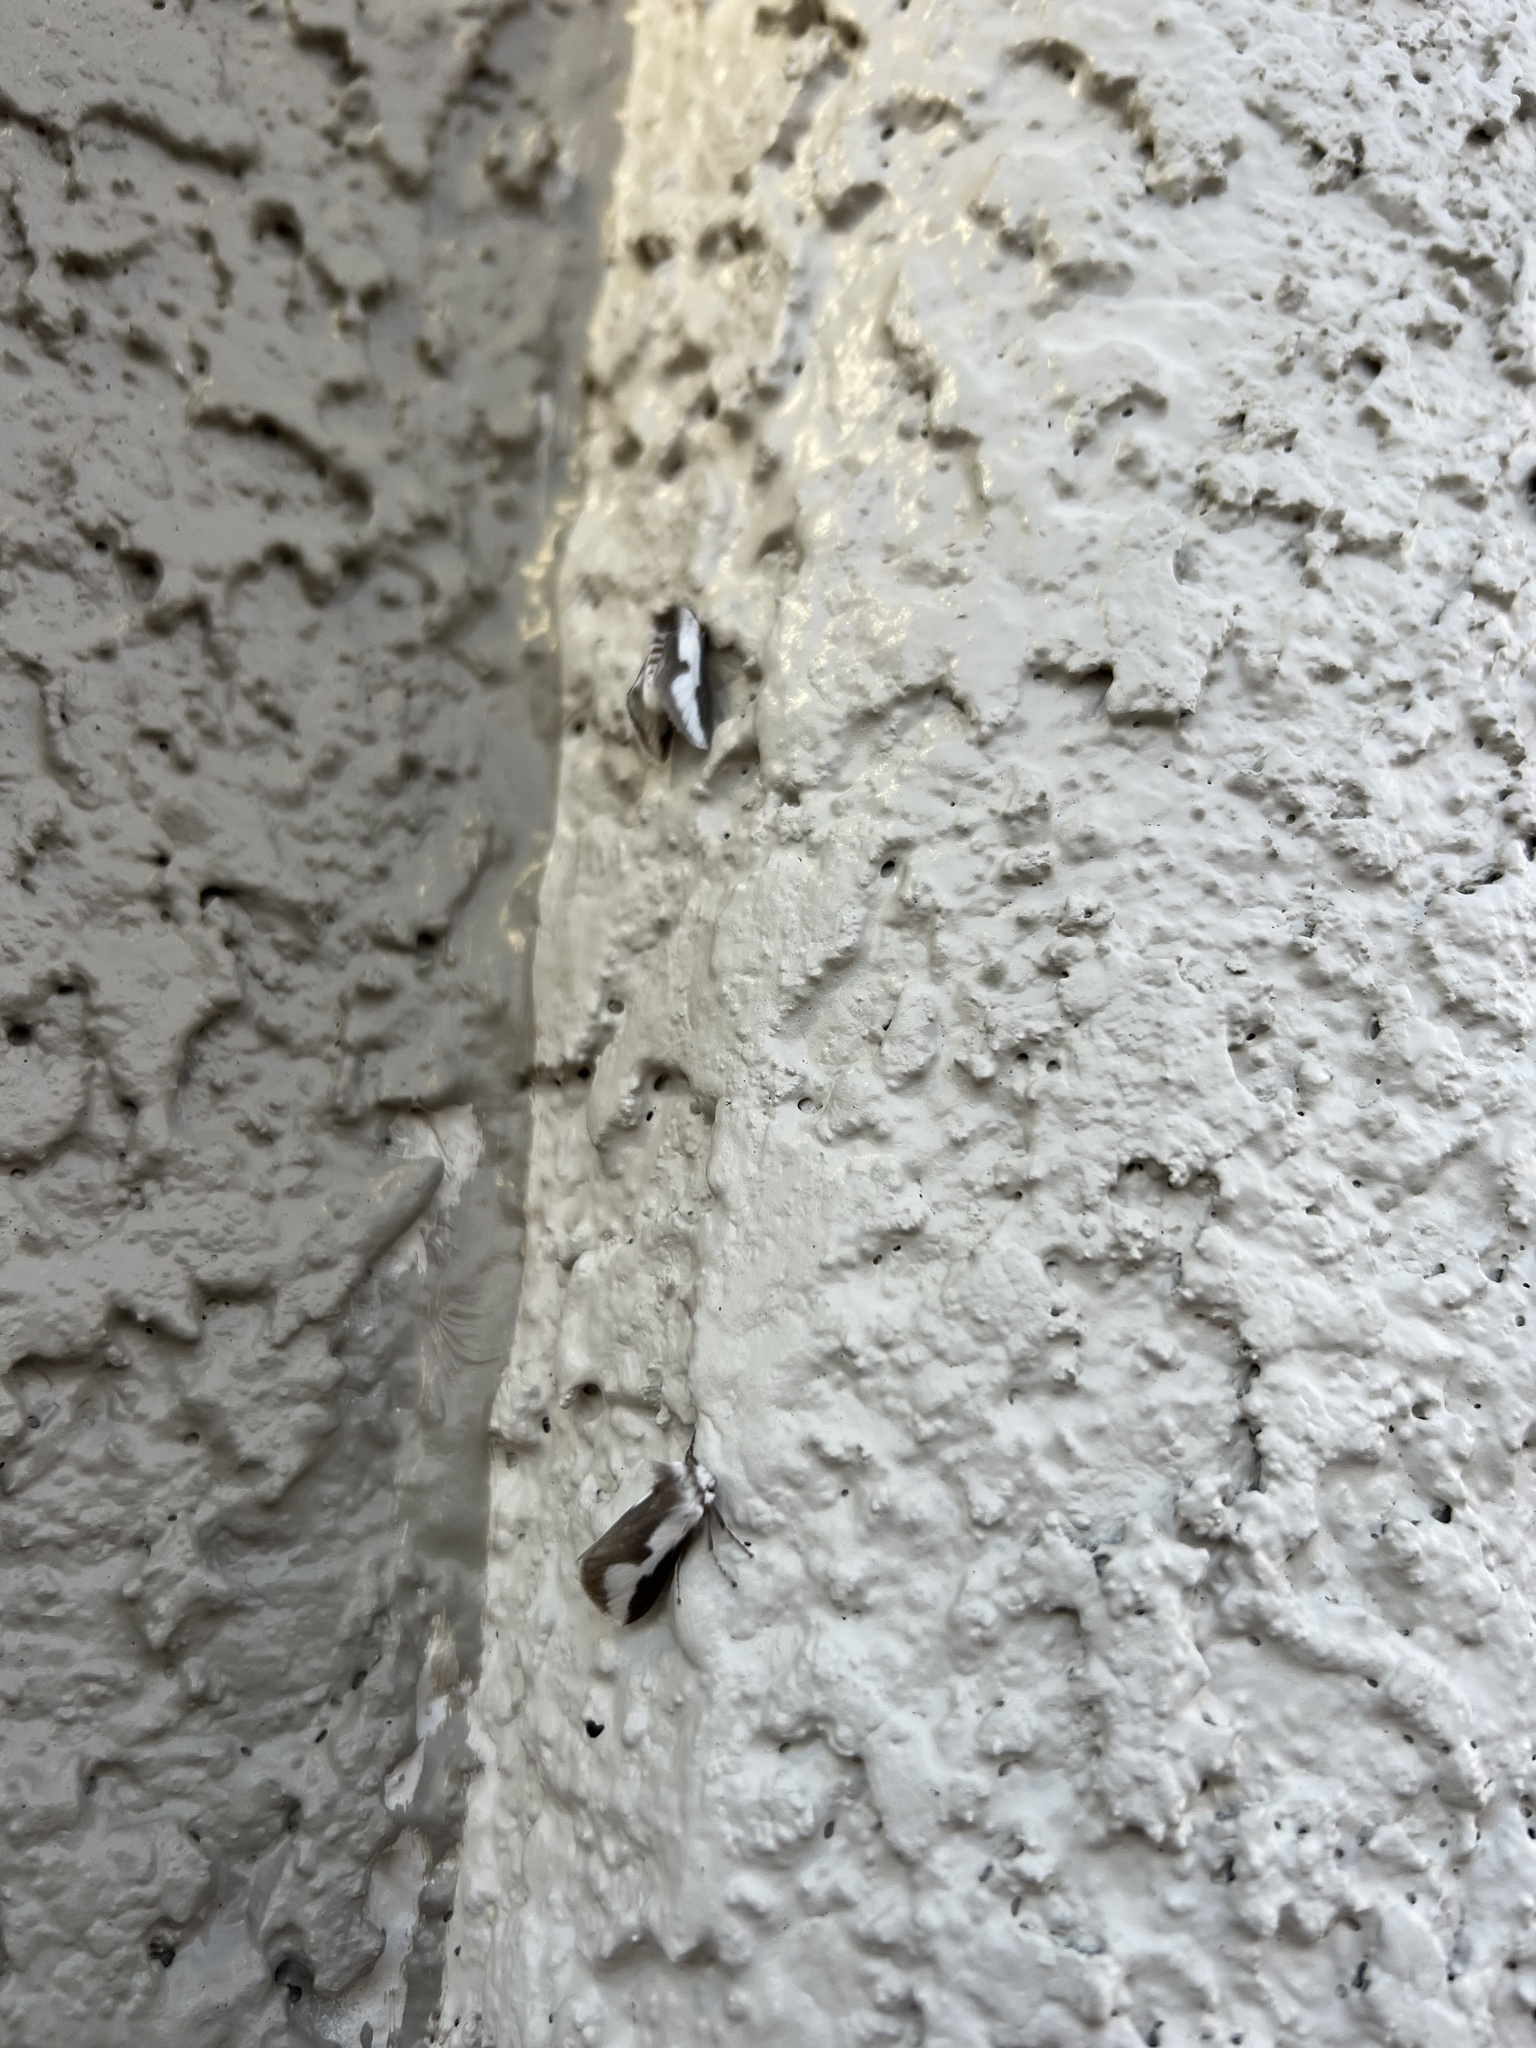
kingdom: Animalia
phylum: Arthropoda
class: Insecta
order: Lepidoptera
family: Megalopygidae
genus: Norape
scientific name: Norape tener
